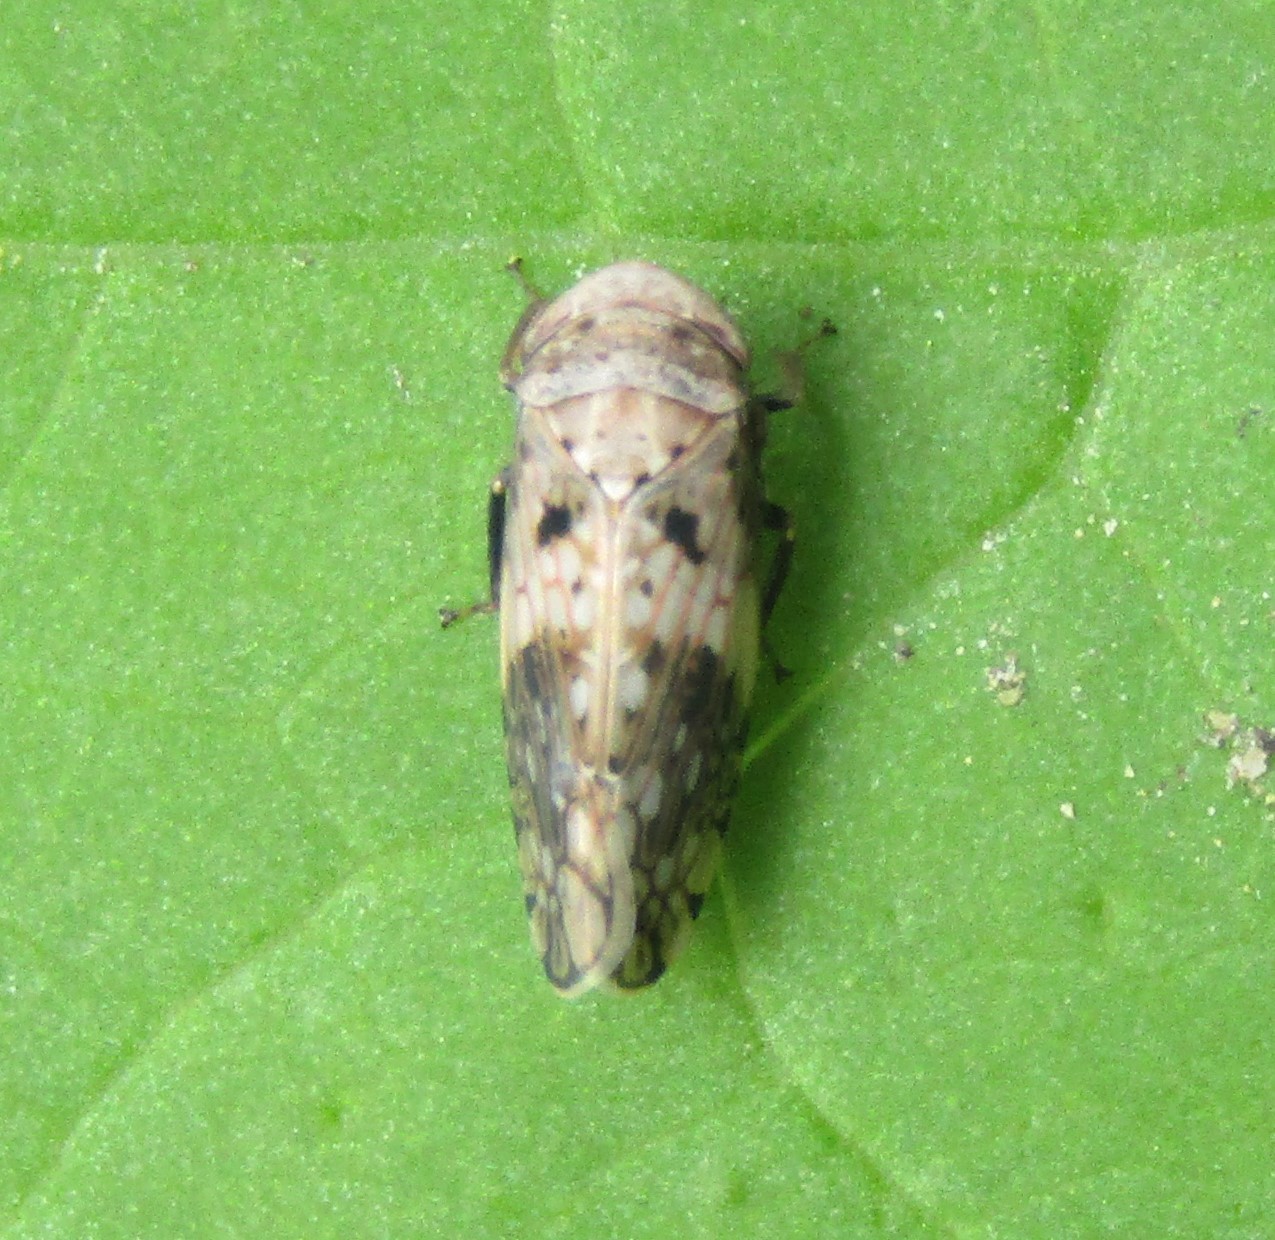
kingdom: Animalia
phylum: Arthropoda
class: Insecta
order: Hemiptera
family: Cicadellidae
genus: Menosoma
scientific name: Menosoma cinctum
